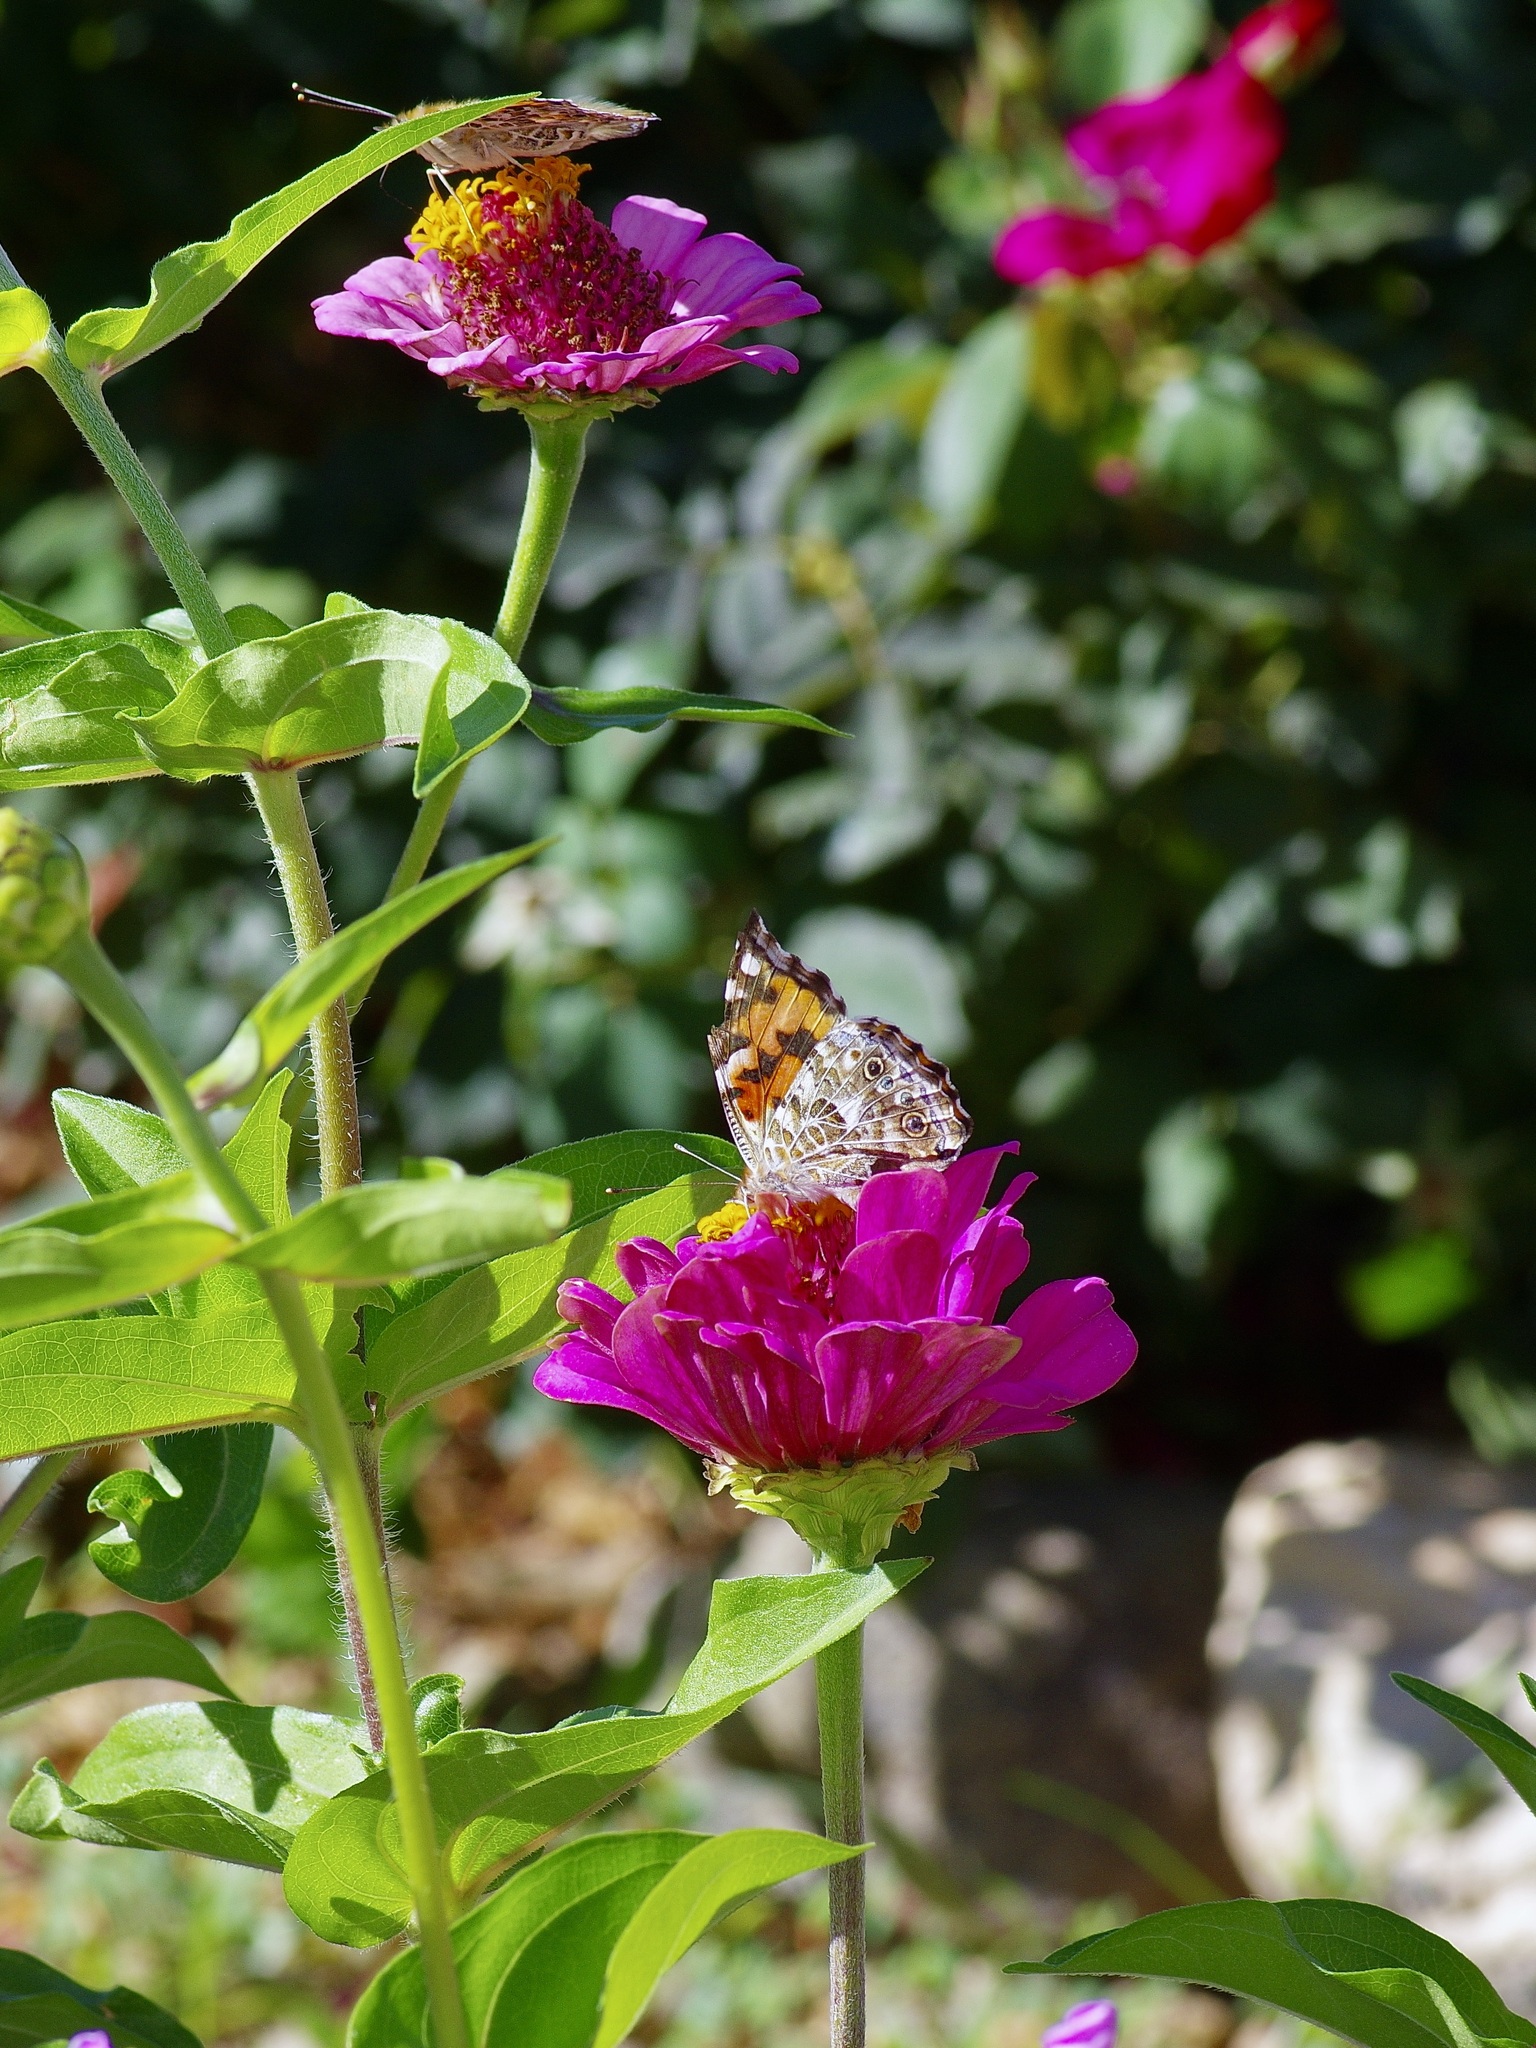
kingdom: Animalia
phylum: Arthropoda
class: Insecta
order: Lepidoptera
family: Nymphalidae
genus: Vanessa
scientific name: Vanessa cardui
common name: Painted lady
